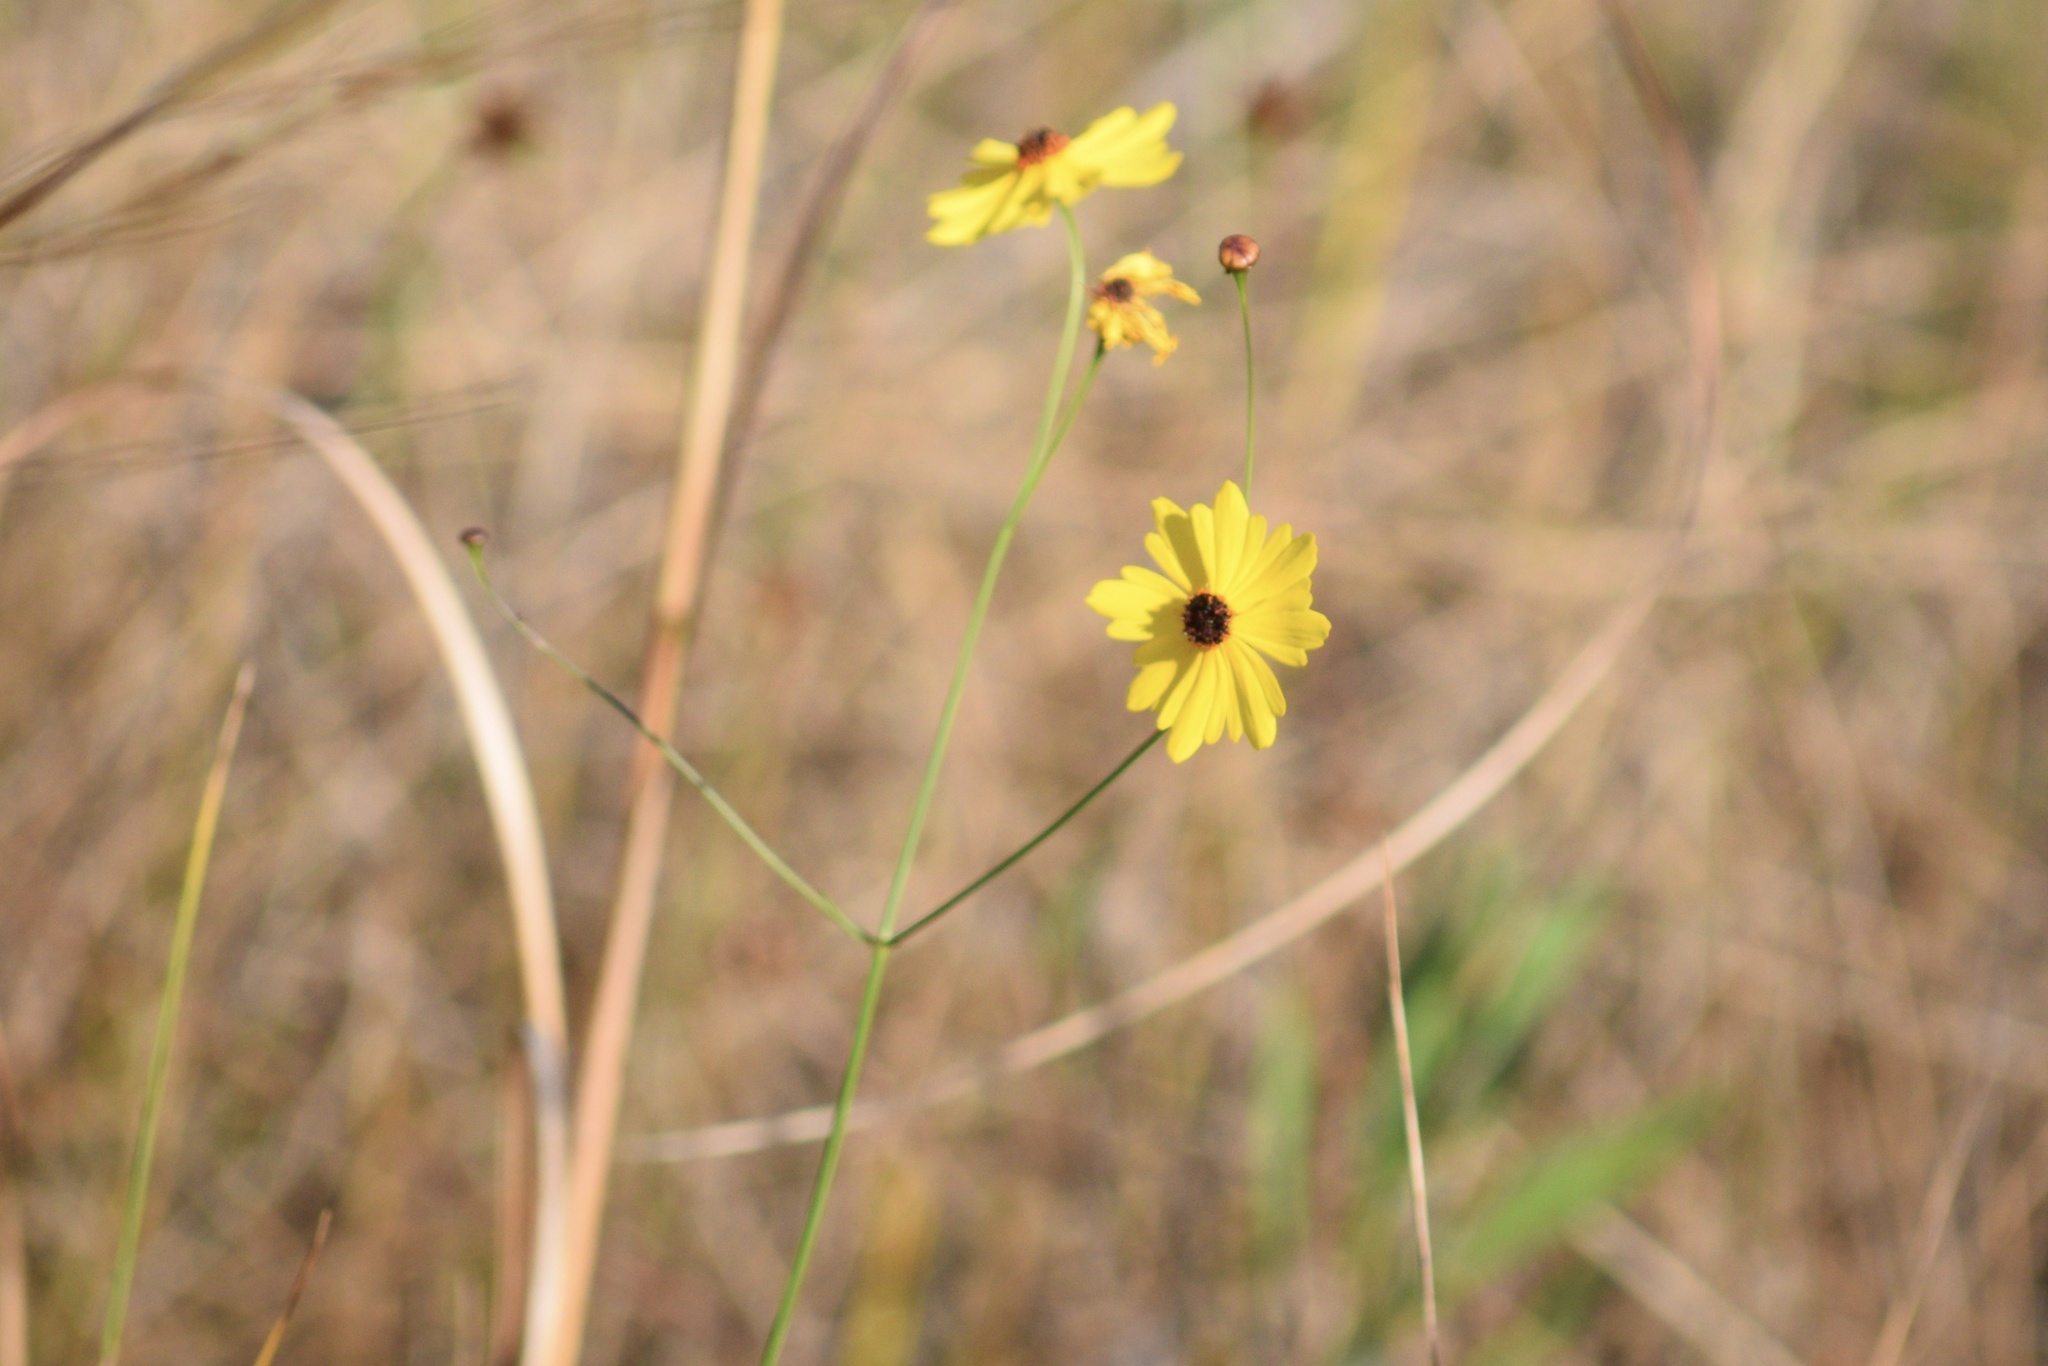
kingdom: Plantae
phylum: Tracheophyta
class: Magnoliopsida
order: Asterales
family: Asteraceae
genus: Coreopsis
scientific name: Coreopsis leavenworthii
